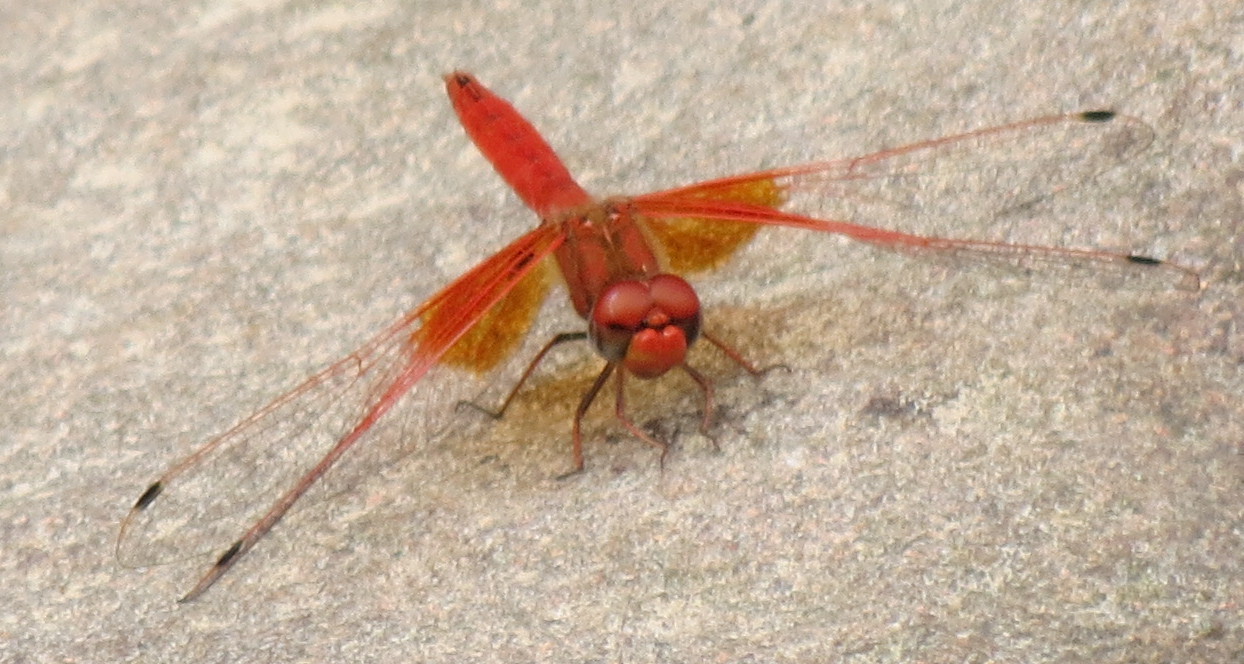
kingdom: Animalia
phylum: Arthropoda
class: Insecta
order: Odonata
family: Libellulidae
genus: Trithemis
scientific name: Trithemis kirbyi
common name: Kirby's dropwing
